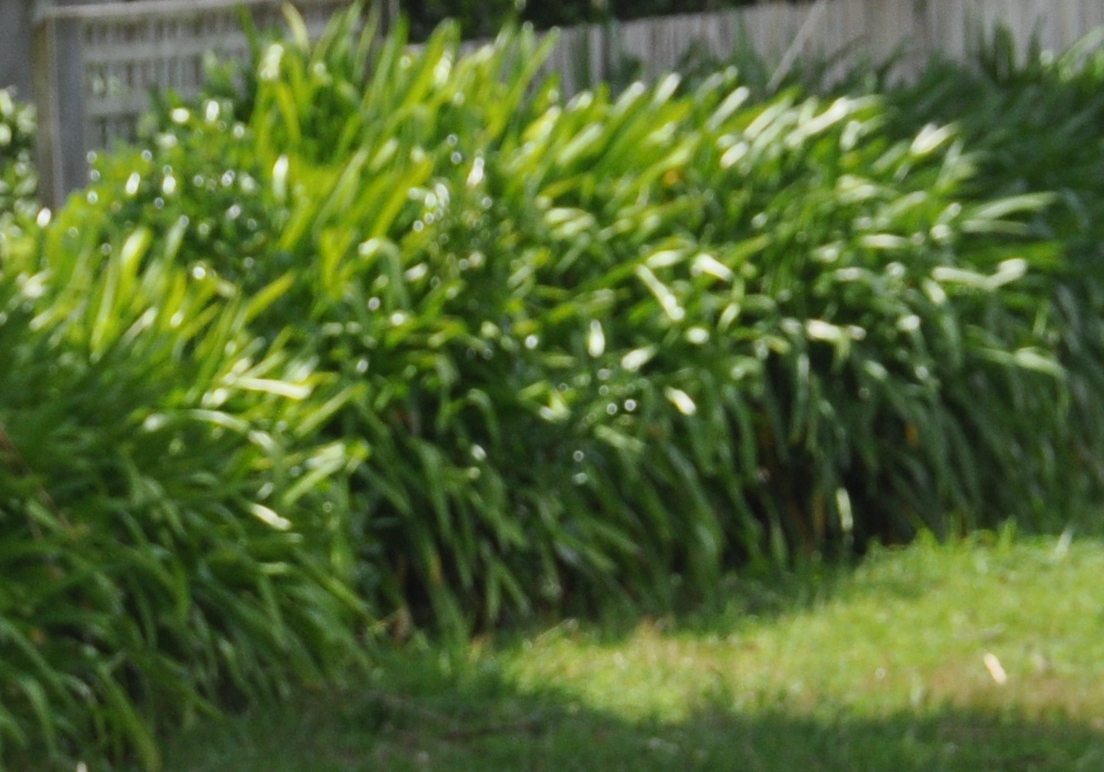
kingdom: Plantae
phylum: Tracheophyta
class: Liliopsida
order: Asparagales
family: Amaryllidaceae
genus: Agapanthus
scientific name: Agapanthus praecox
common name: African-lily
